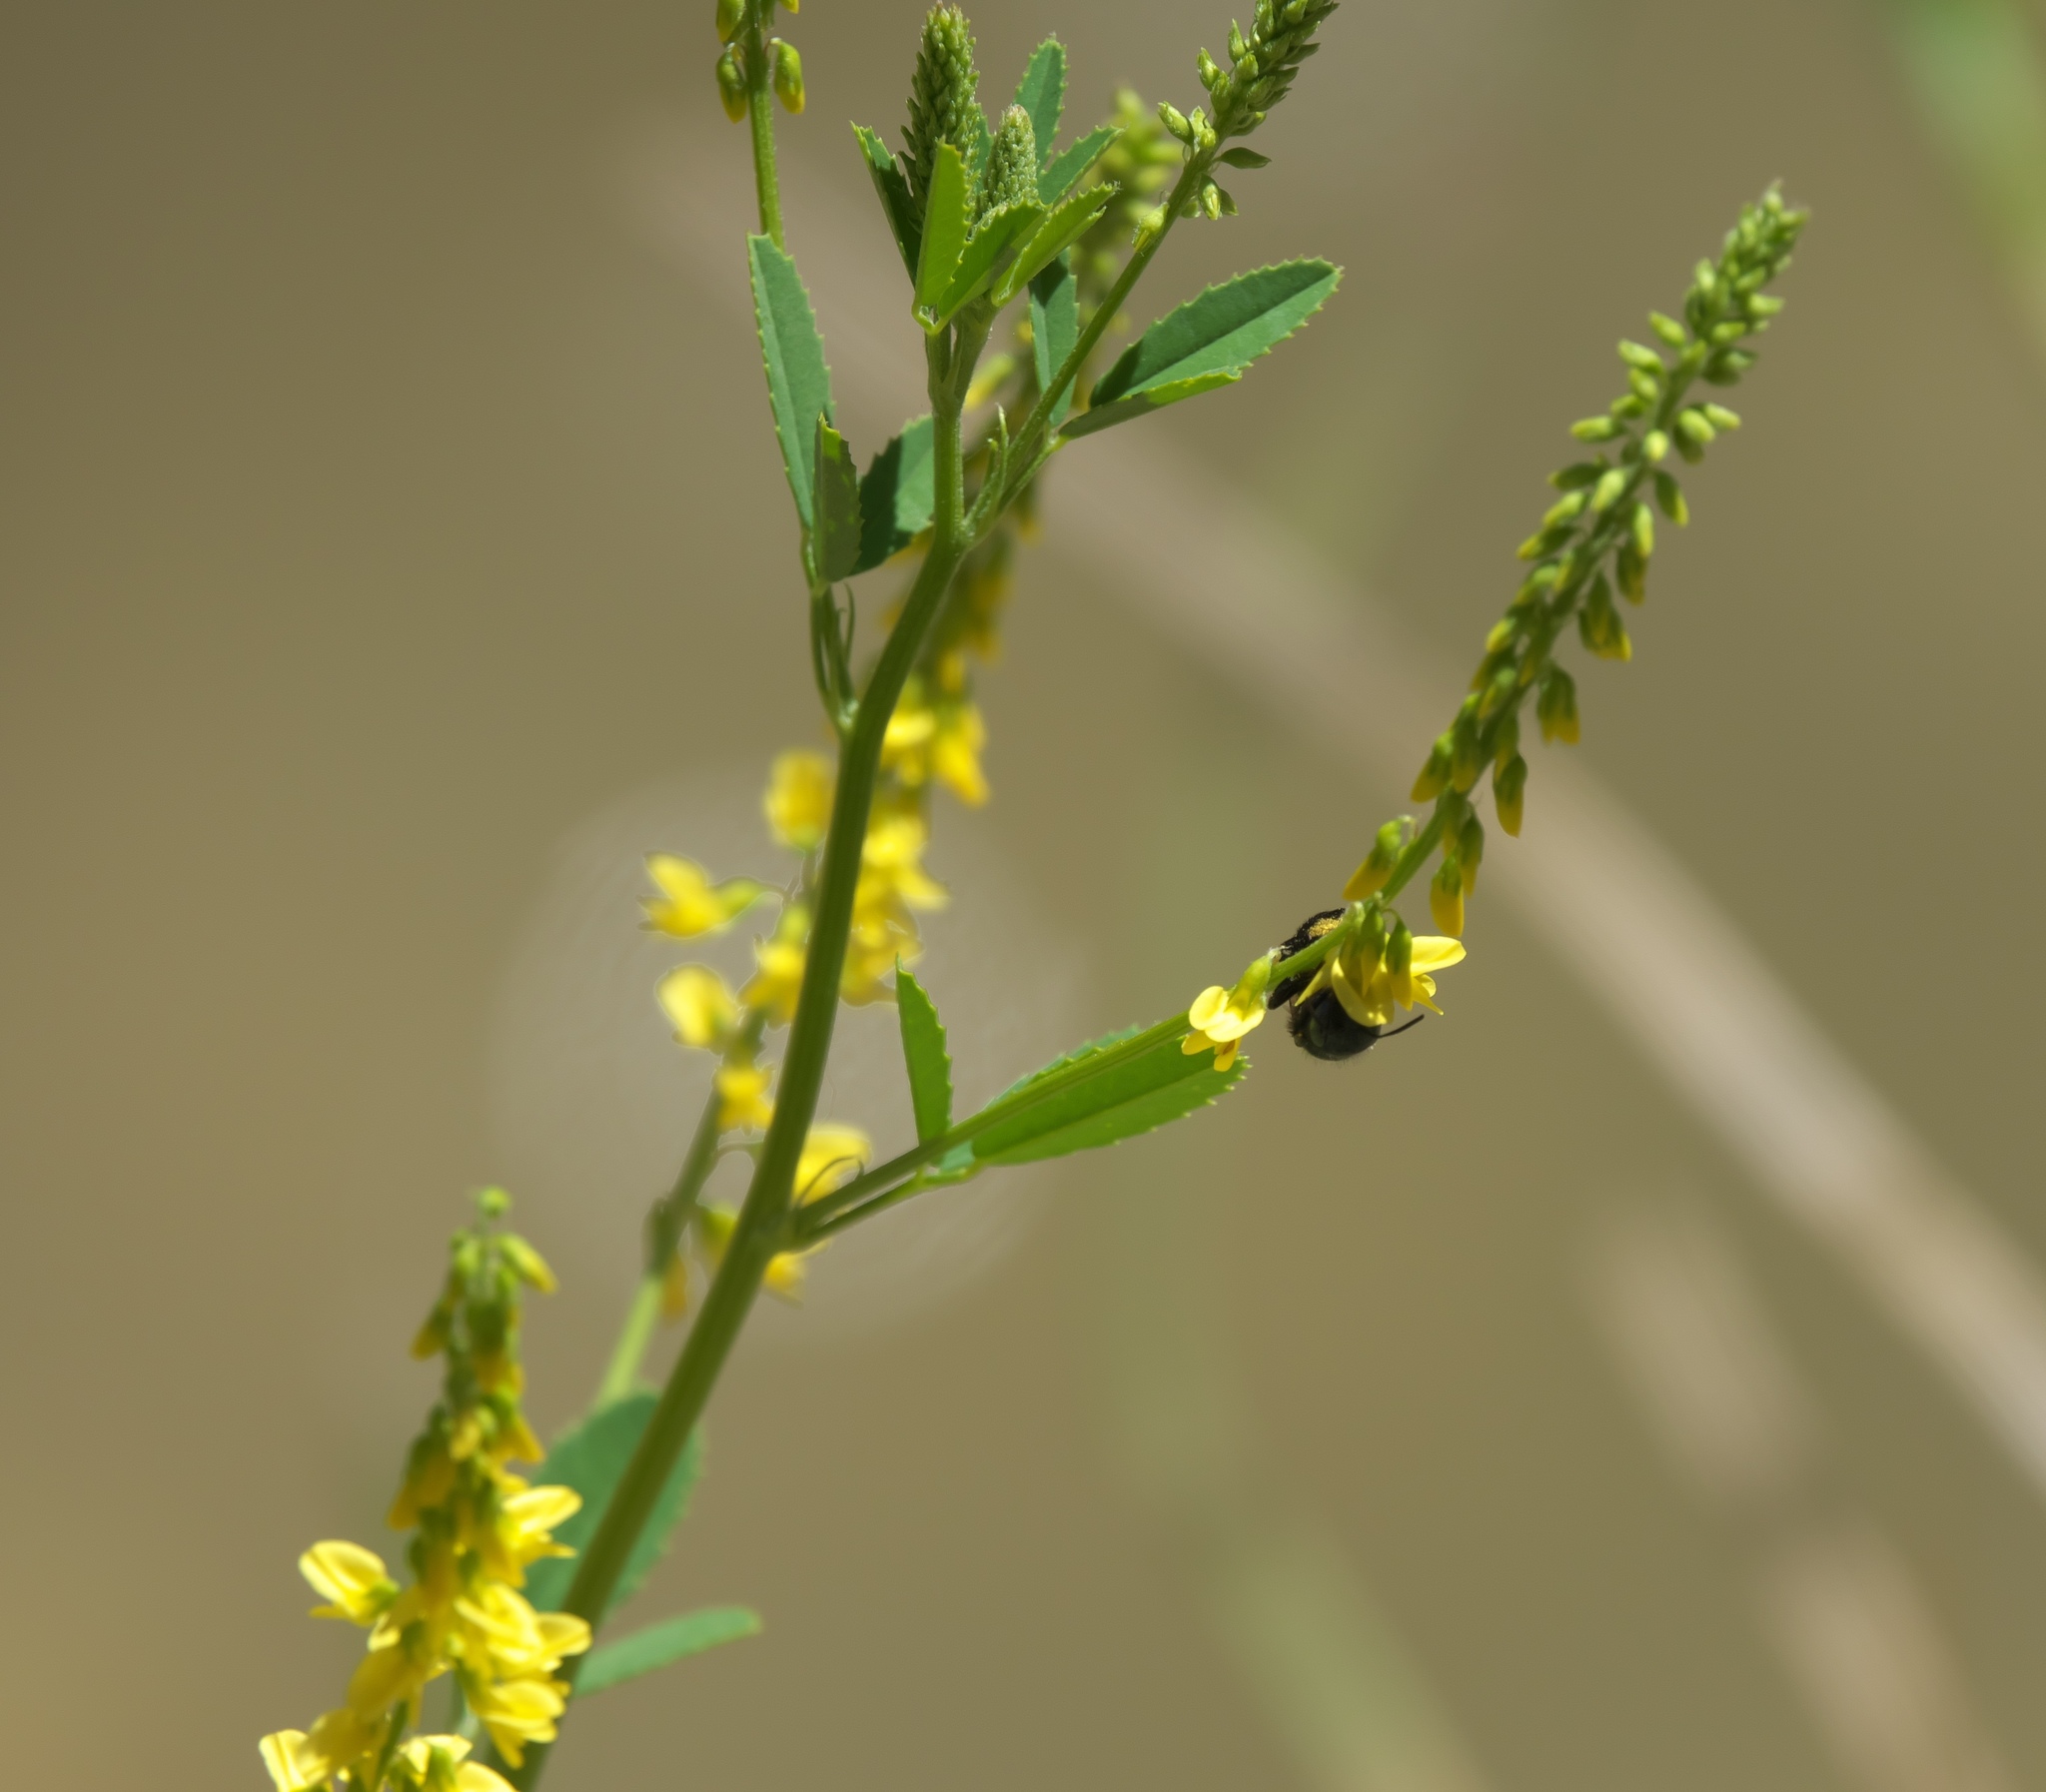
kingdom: Plantae
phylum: Tracheophyta
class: Magnoliopsida
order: Fabales
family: Fabaceae
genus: Melilotus
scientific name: Melilotus officinalis
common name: Sweetclover
